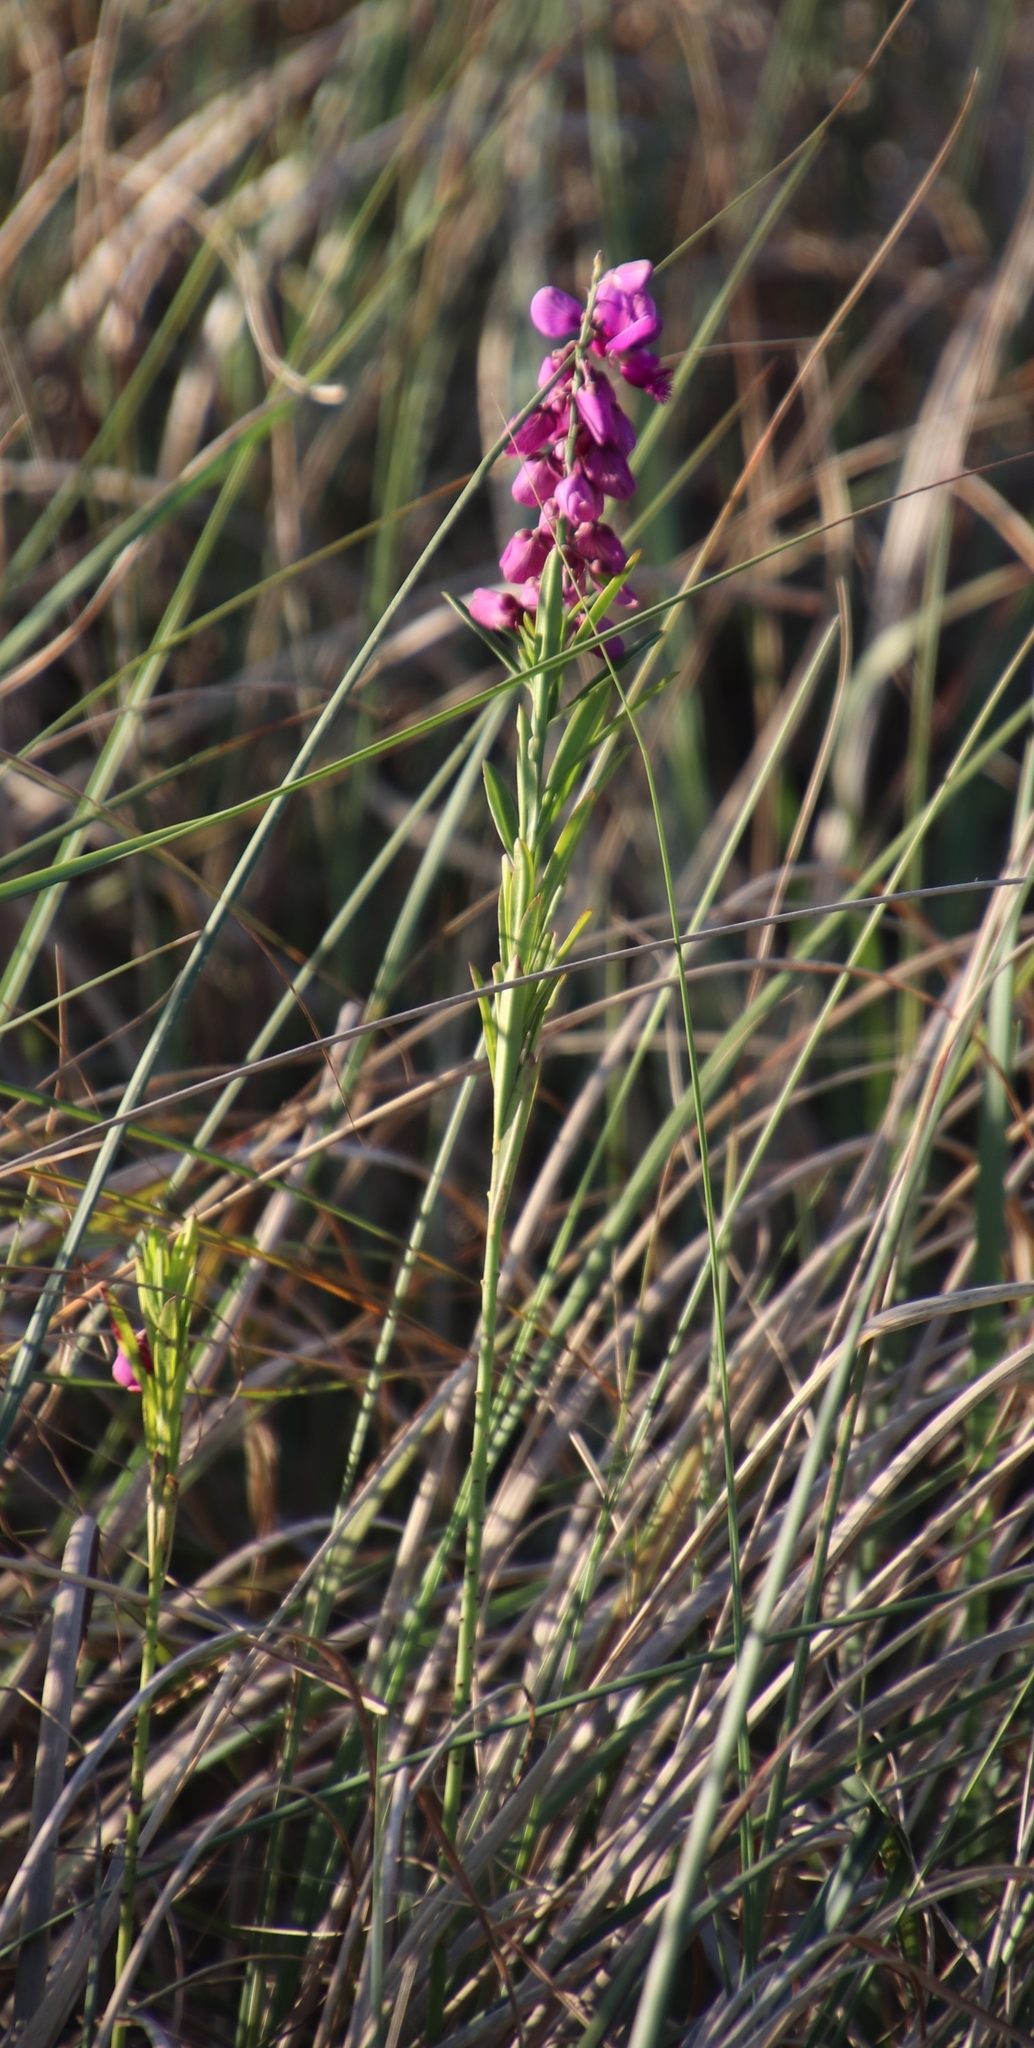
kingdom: Plantae
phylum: Tracheophyta
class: Magnoliopsida
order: Fabales
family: Polygalaceae
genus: Polygala
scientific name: Polygala virgata
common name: Milkwort
